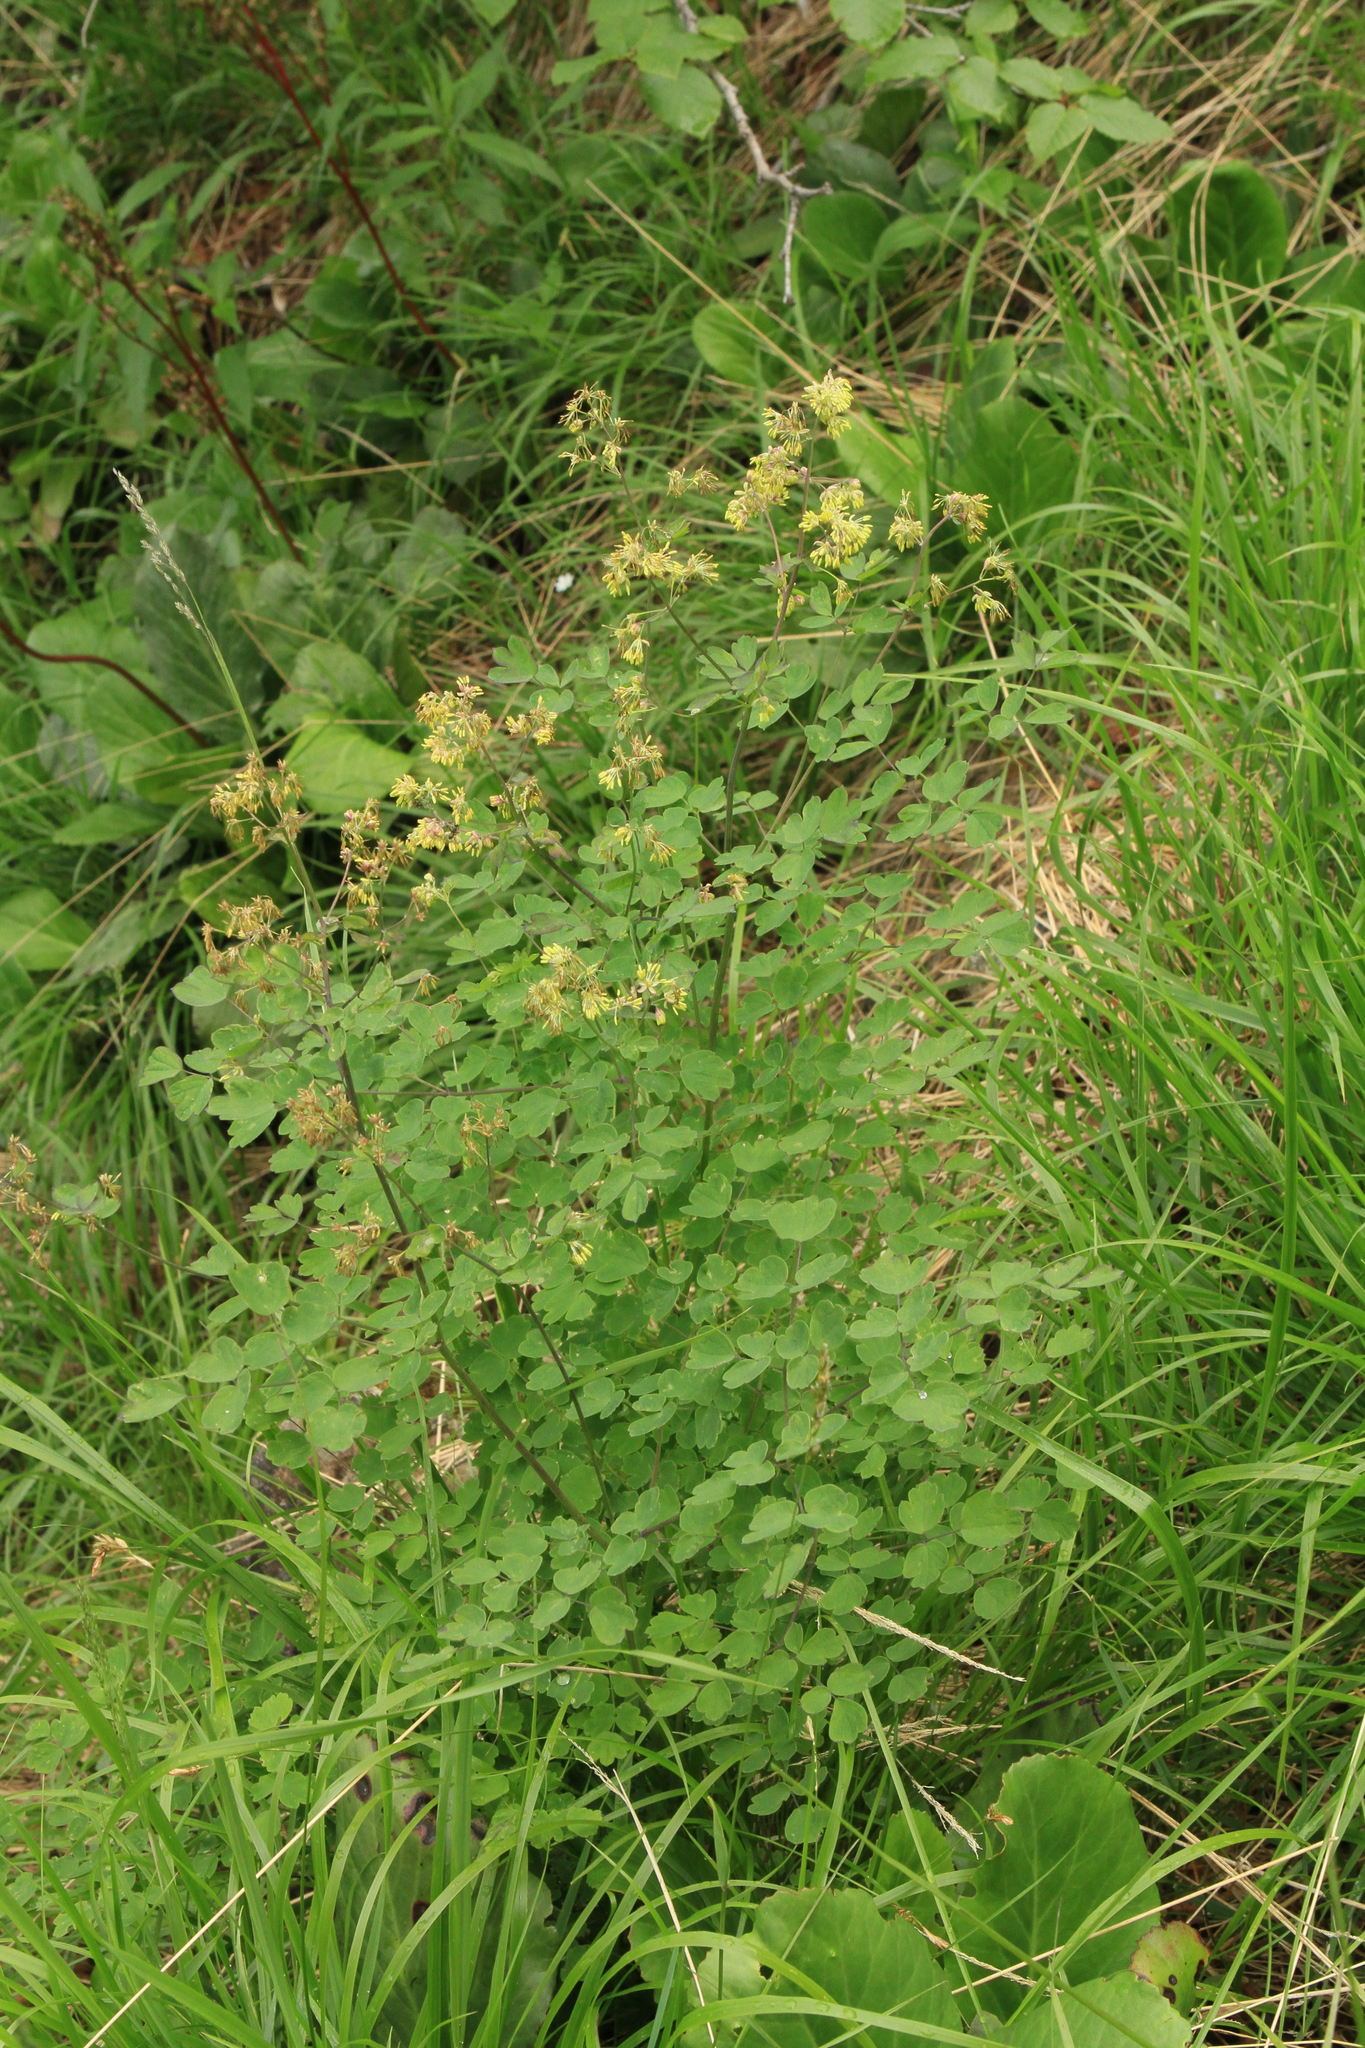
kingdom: Plantae
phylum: Tracheophyta
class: Magnoliopsida
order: Ranunculales
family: Ranunculaceae
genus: Thalictrum
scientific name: Thalictrum minus
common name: Lesser meadow-rue
